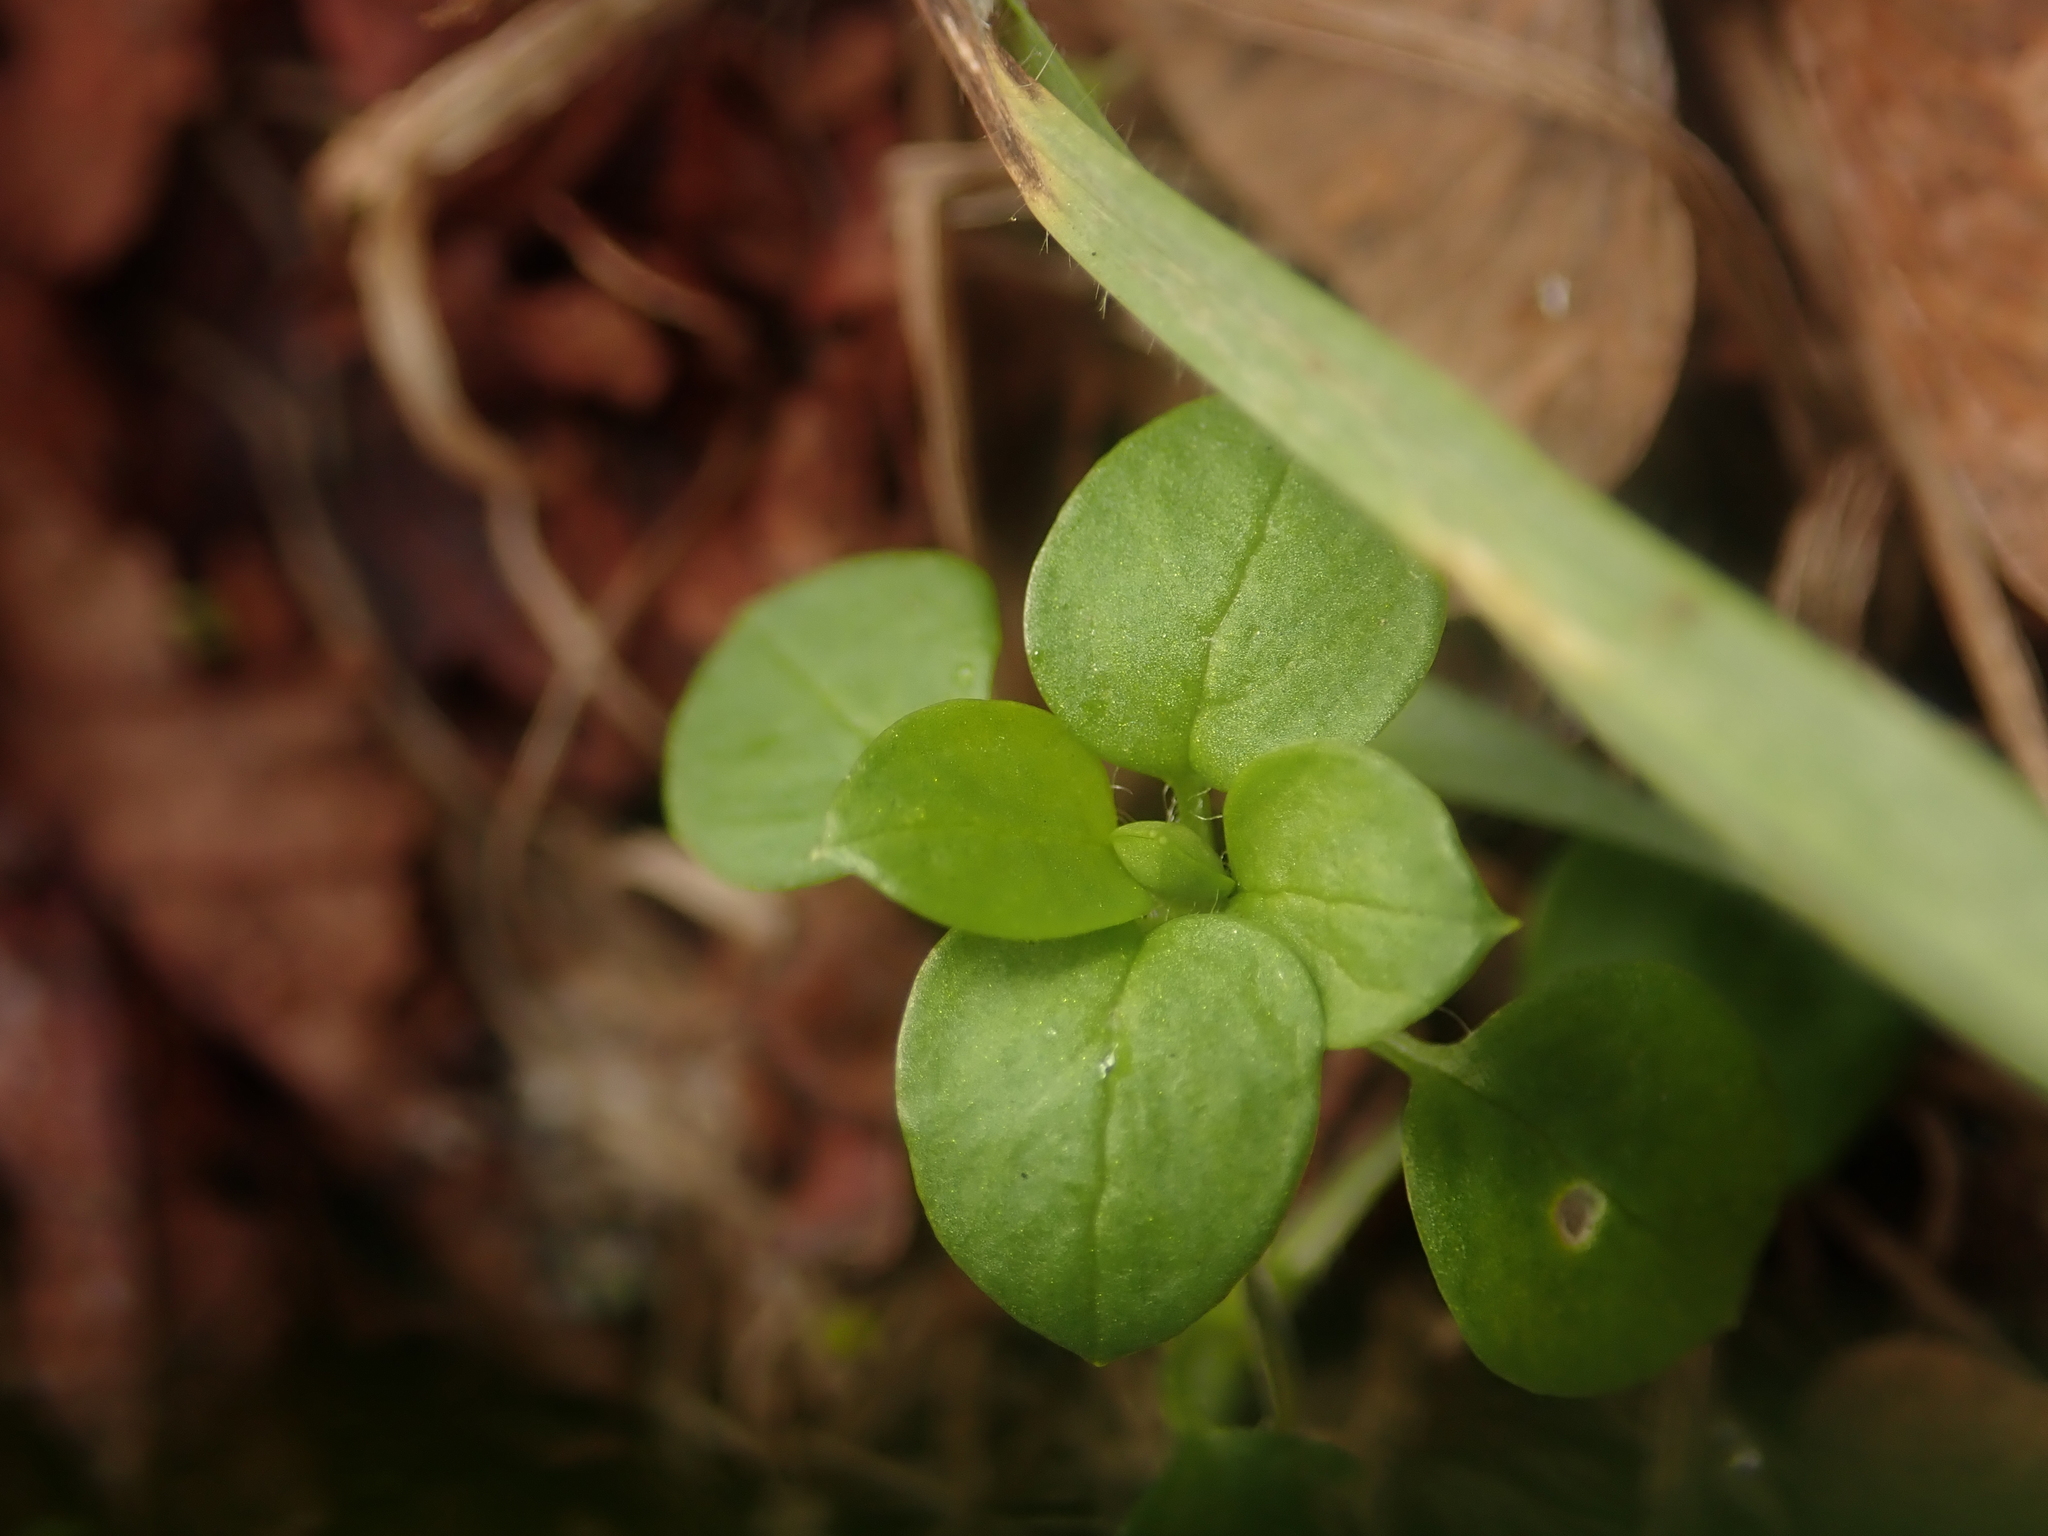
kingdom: Plantae
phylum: Tracheophyta
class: Magnoliopsida
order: Caryophyllales
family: Caryophyllaceae
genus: Stellaria
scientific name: Stellaria media
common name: Common chickweed
